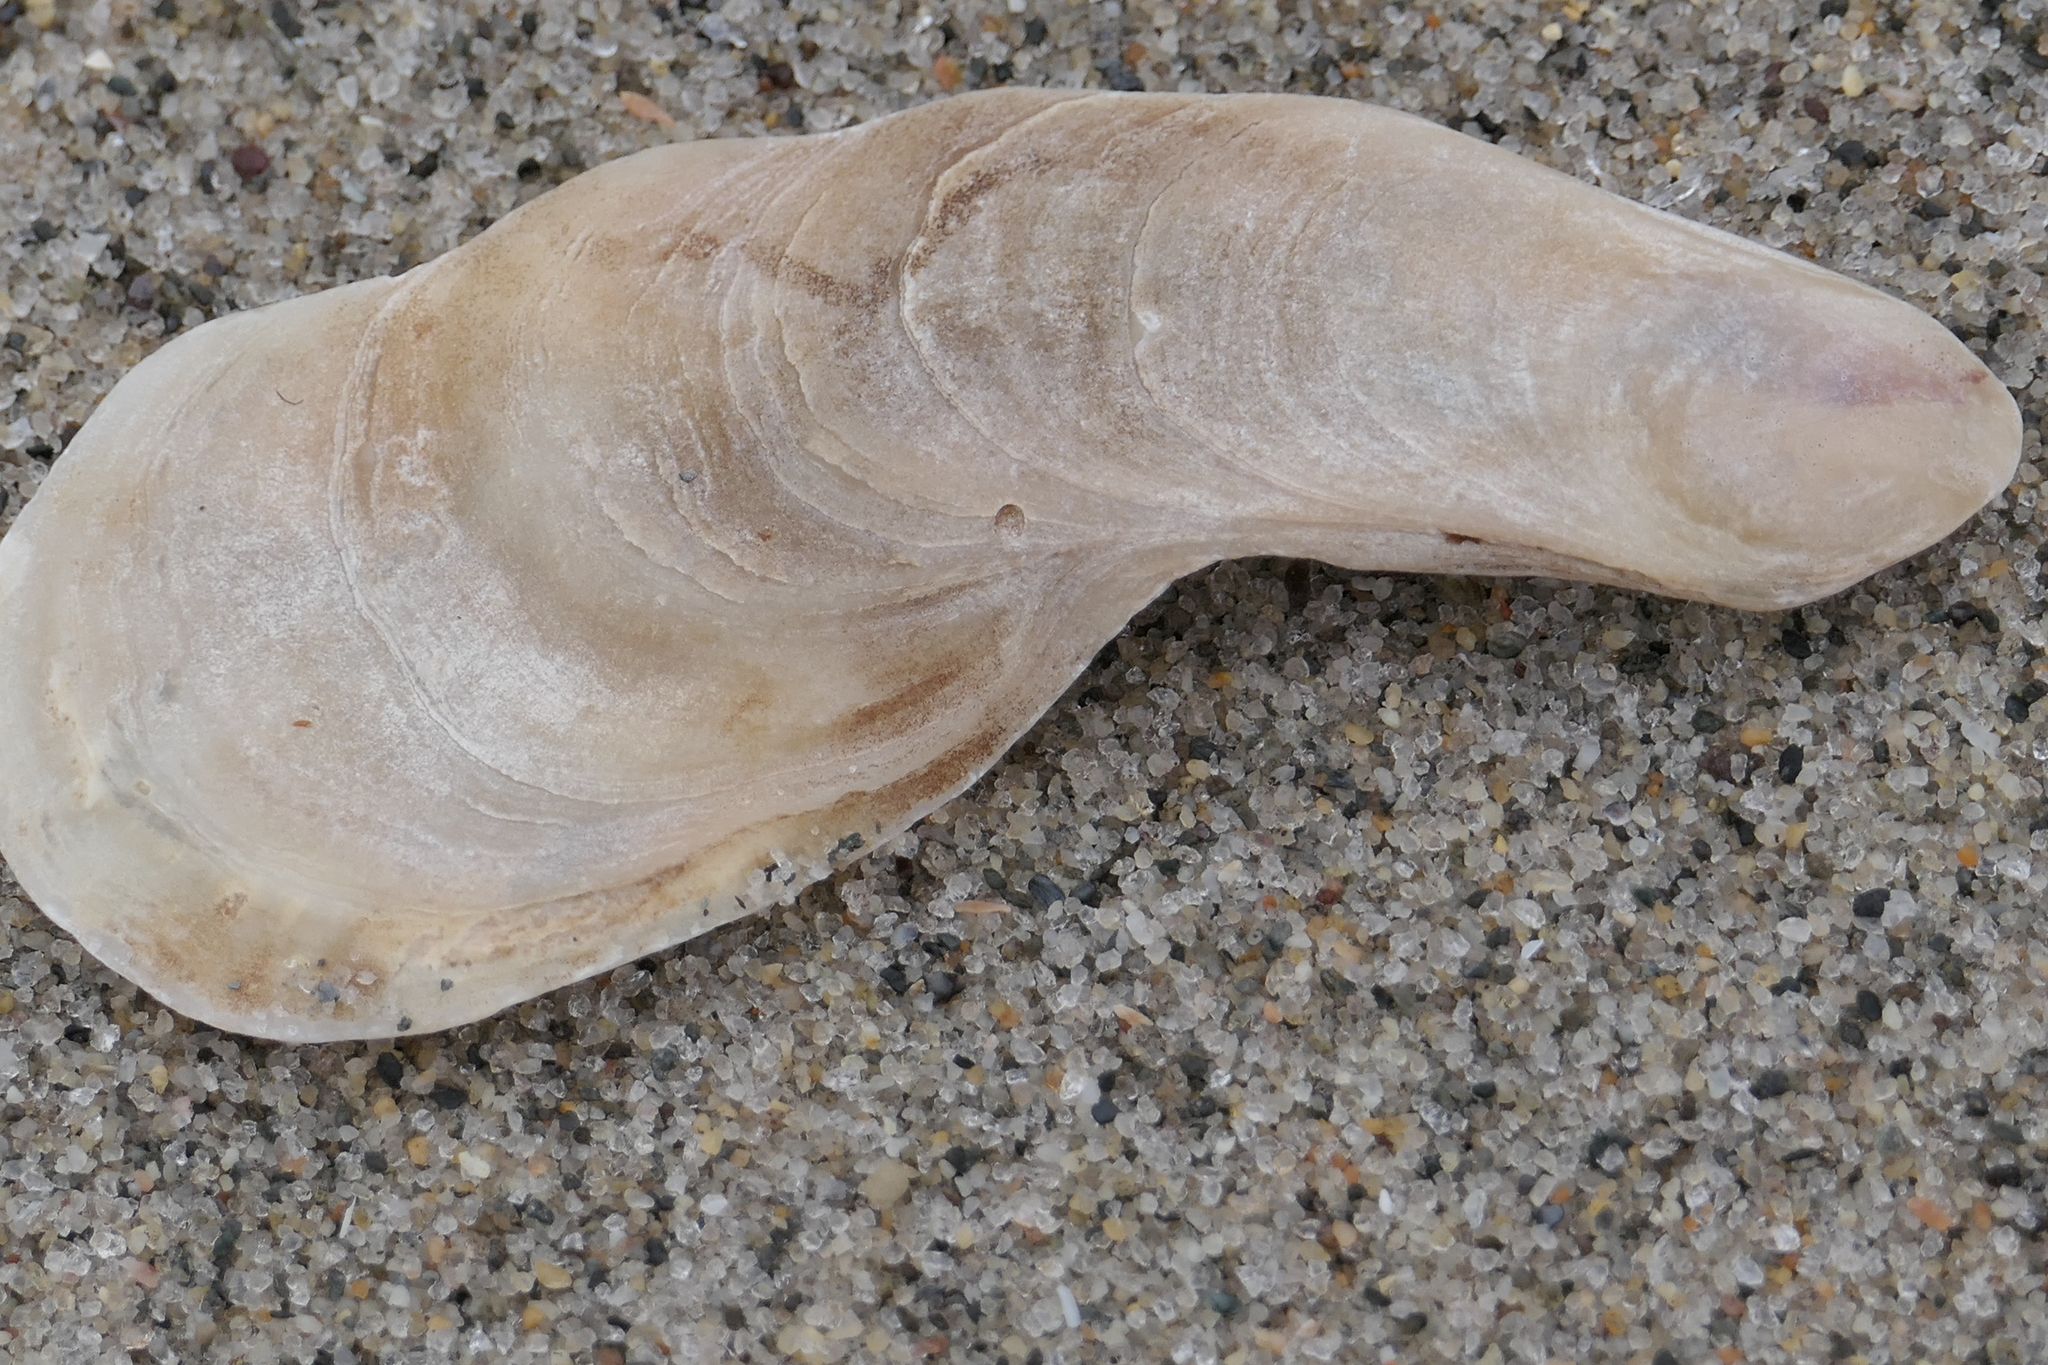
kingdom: Animalia
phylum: Mollusca
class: Bivalvia
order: Ostreida
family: Ostreidae
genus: Crassostrea
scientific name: Crassostrea virginica
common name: American oyster
